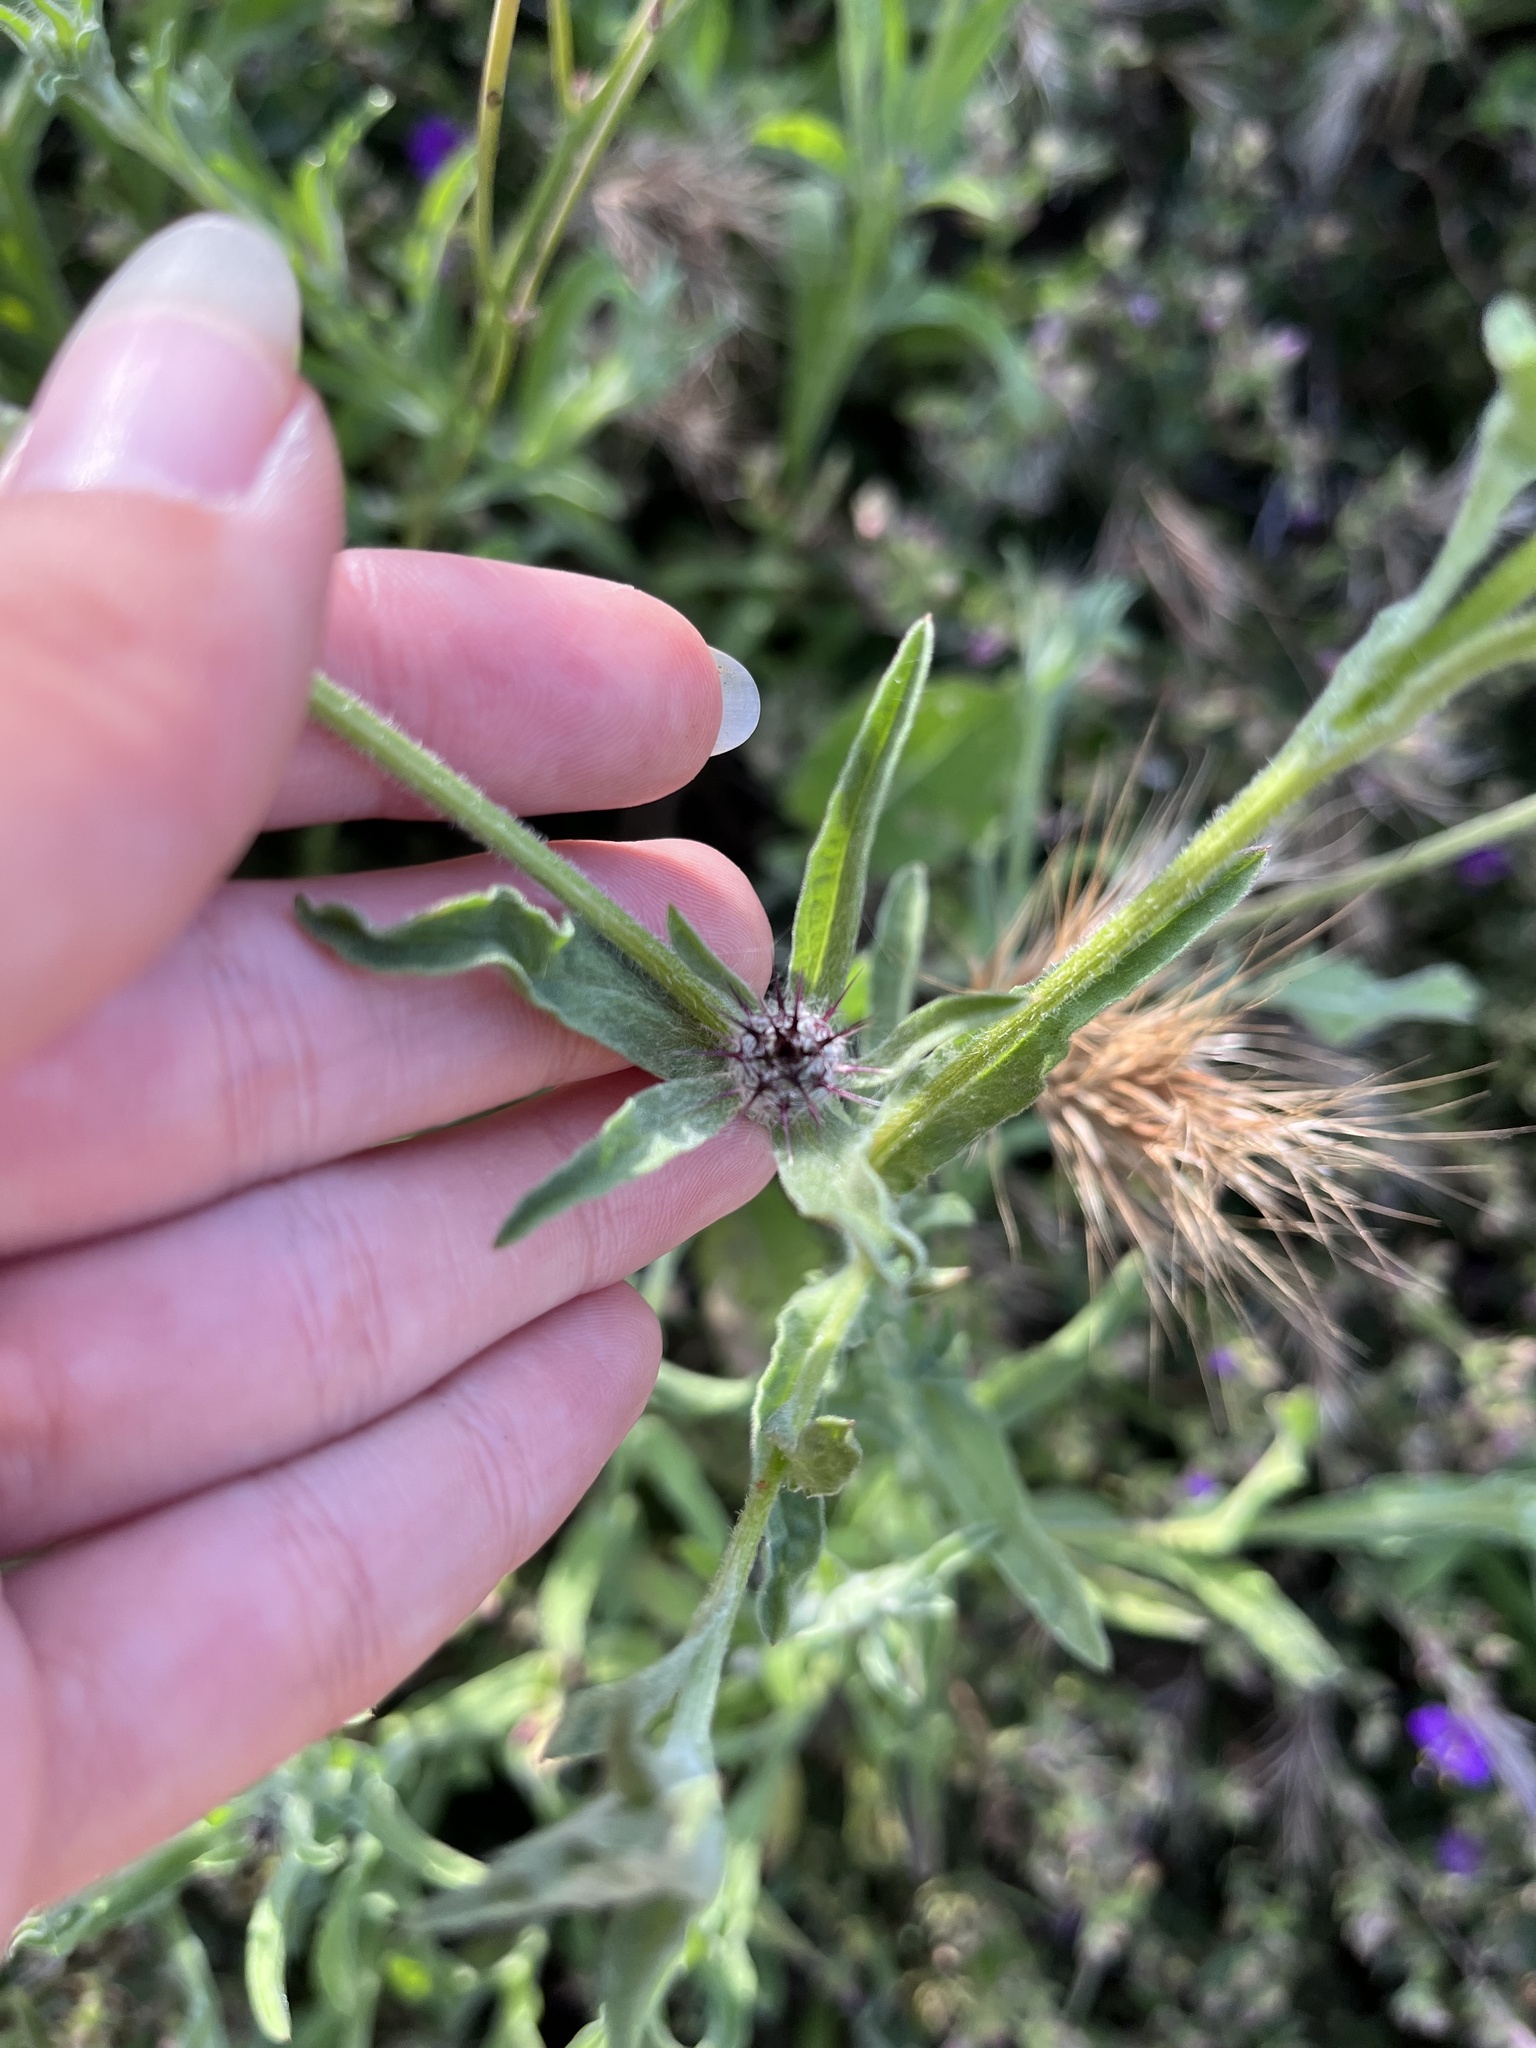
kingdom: Plantae
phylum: Tracheophyta
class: Magnoliopsida
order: Asterales
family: Asteraceae
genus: Centaurea
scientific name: Centaurea melitensis
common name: Maltese star-thistle
